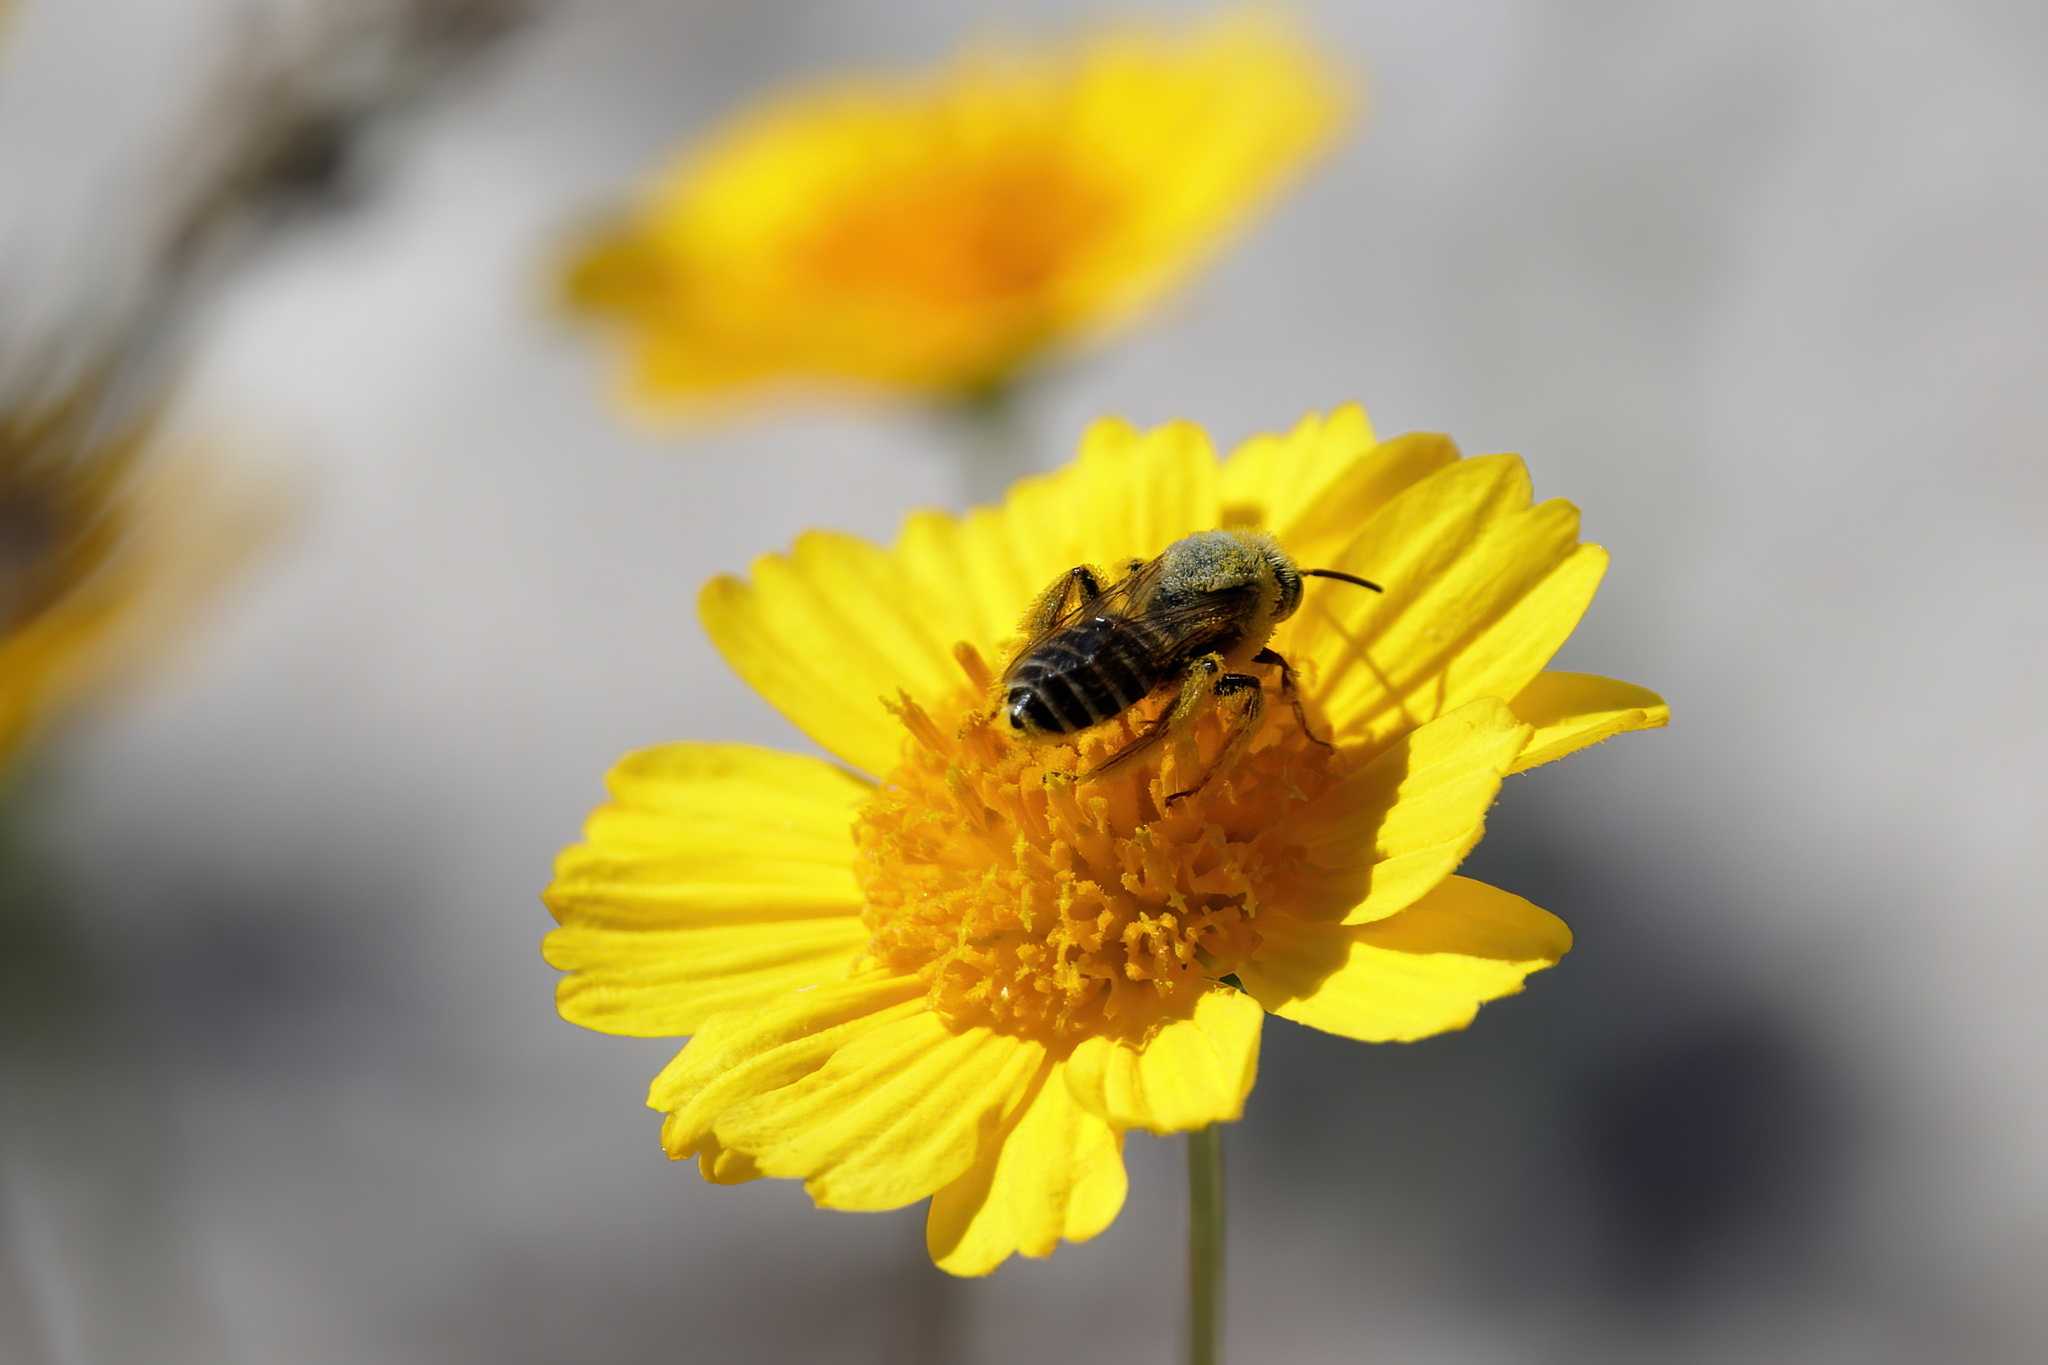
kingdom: Animalia
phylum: Arthropoda
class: Insecta
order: Hymenoptera
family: Melittidae
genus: Hesperapis
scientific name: Hesperapis oraria
